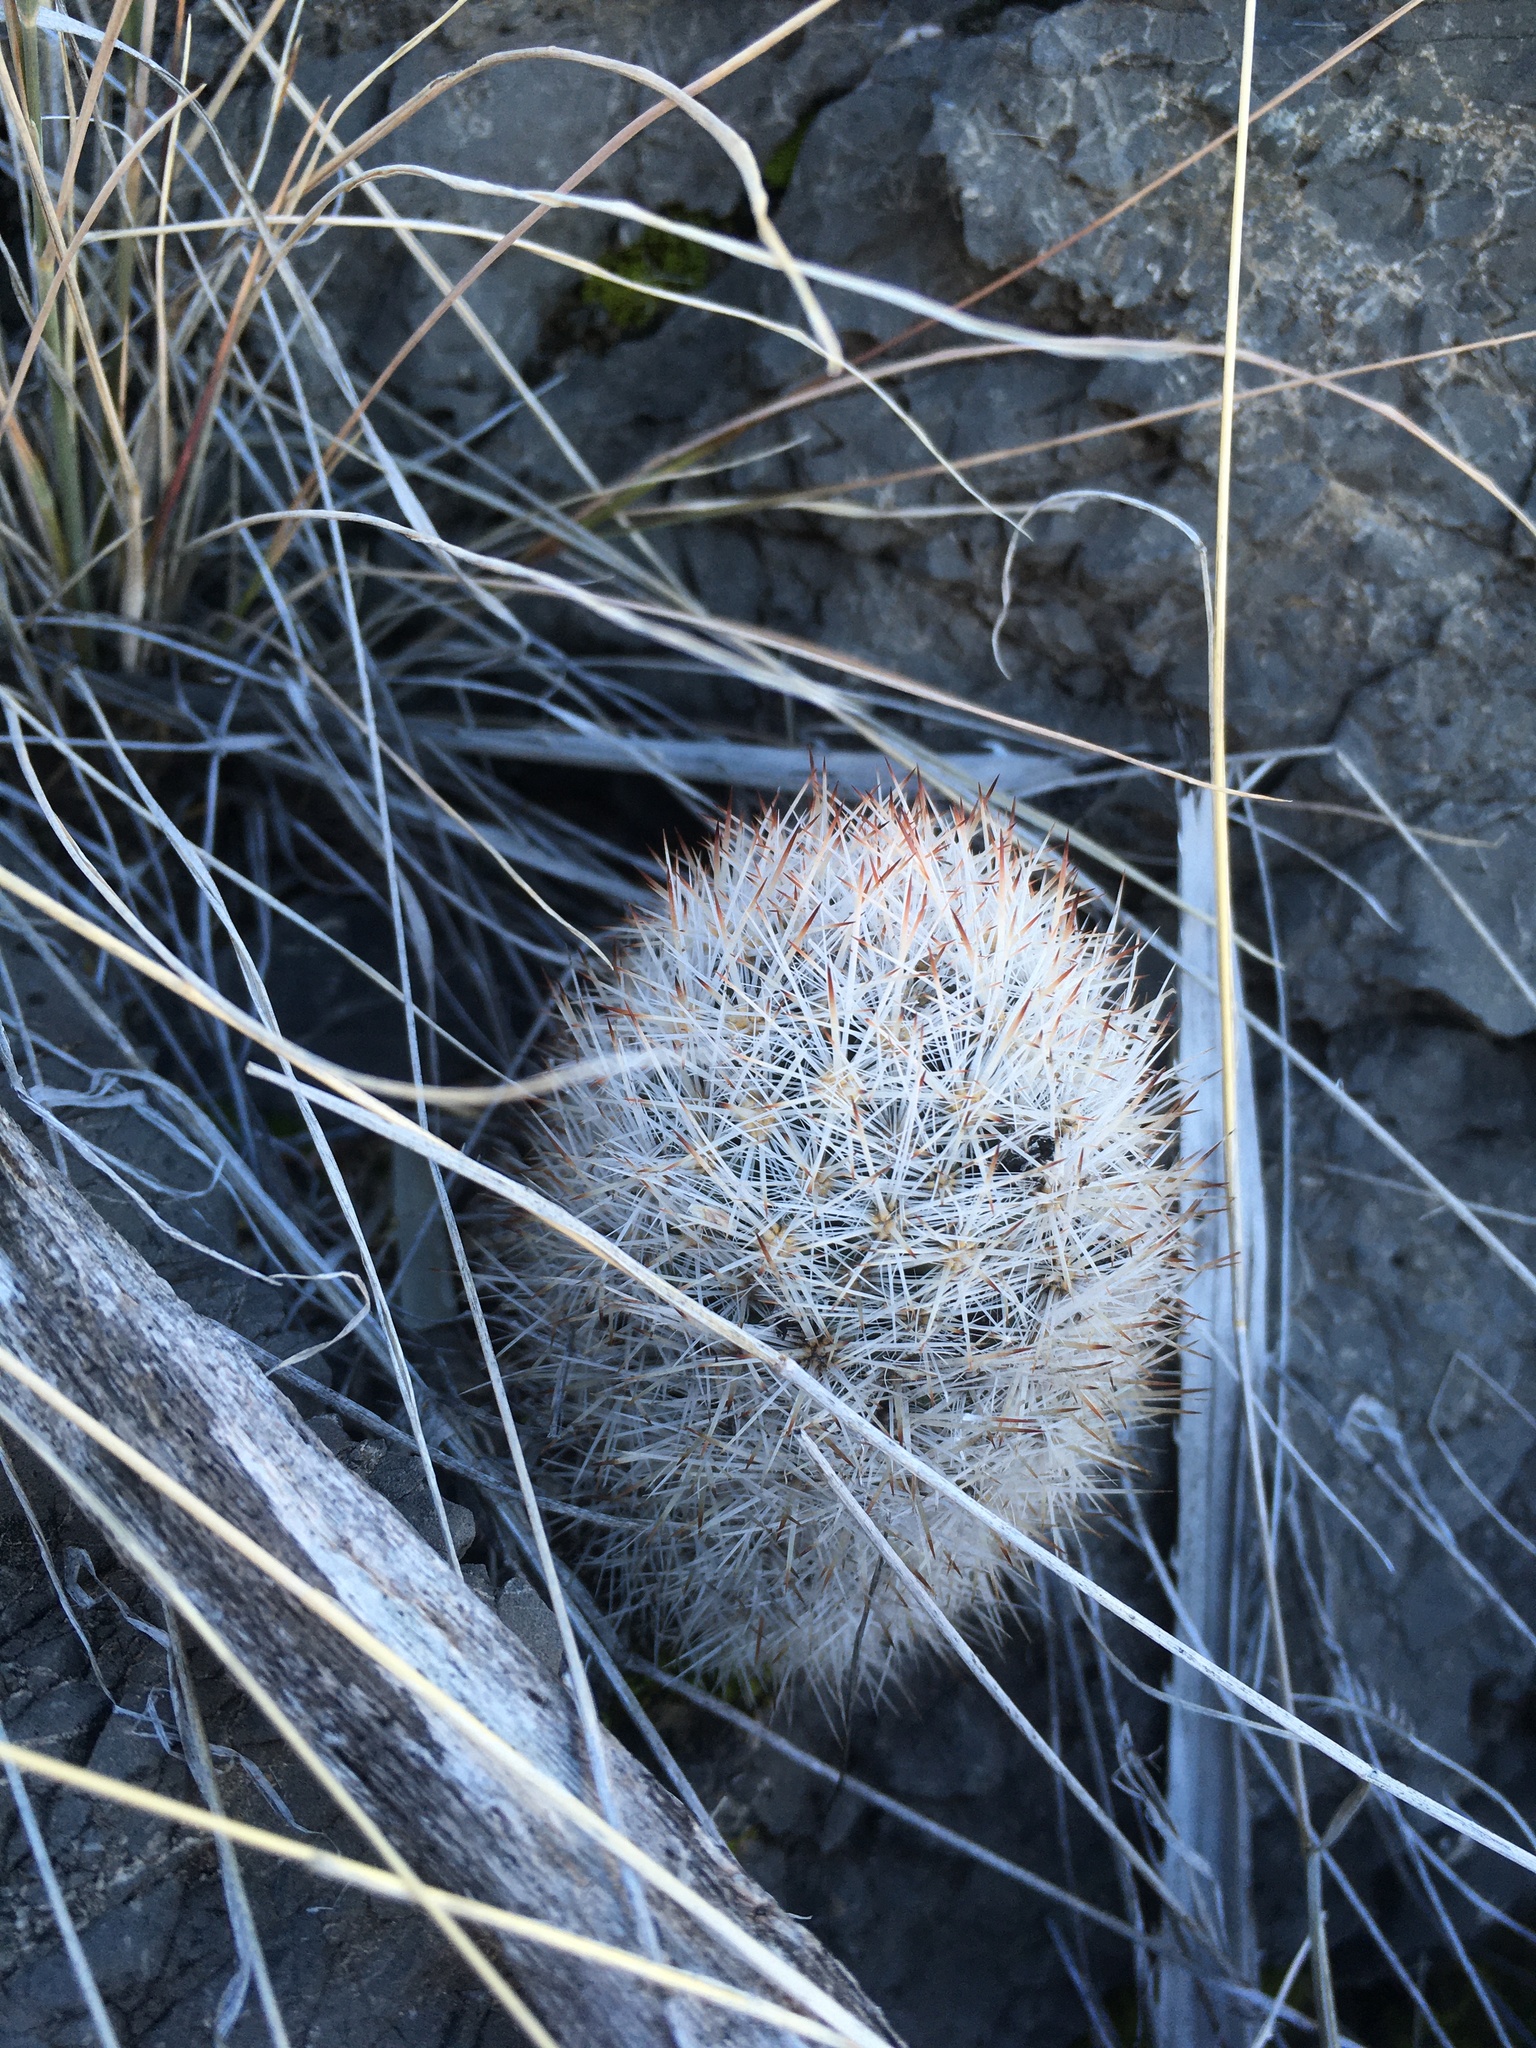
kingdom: Plantae
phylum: Tracheophyta
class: Magnoliopsida
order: Caryophyllales
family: Cactaceae
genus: Pelecyphora
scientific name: Pelecyphora sneedii
